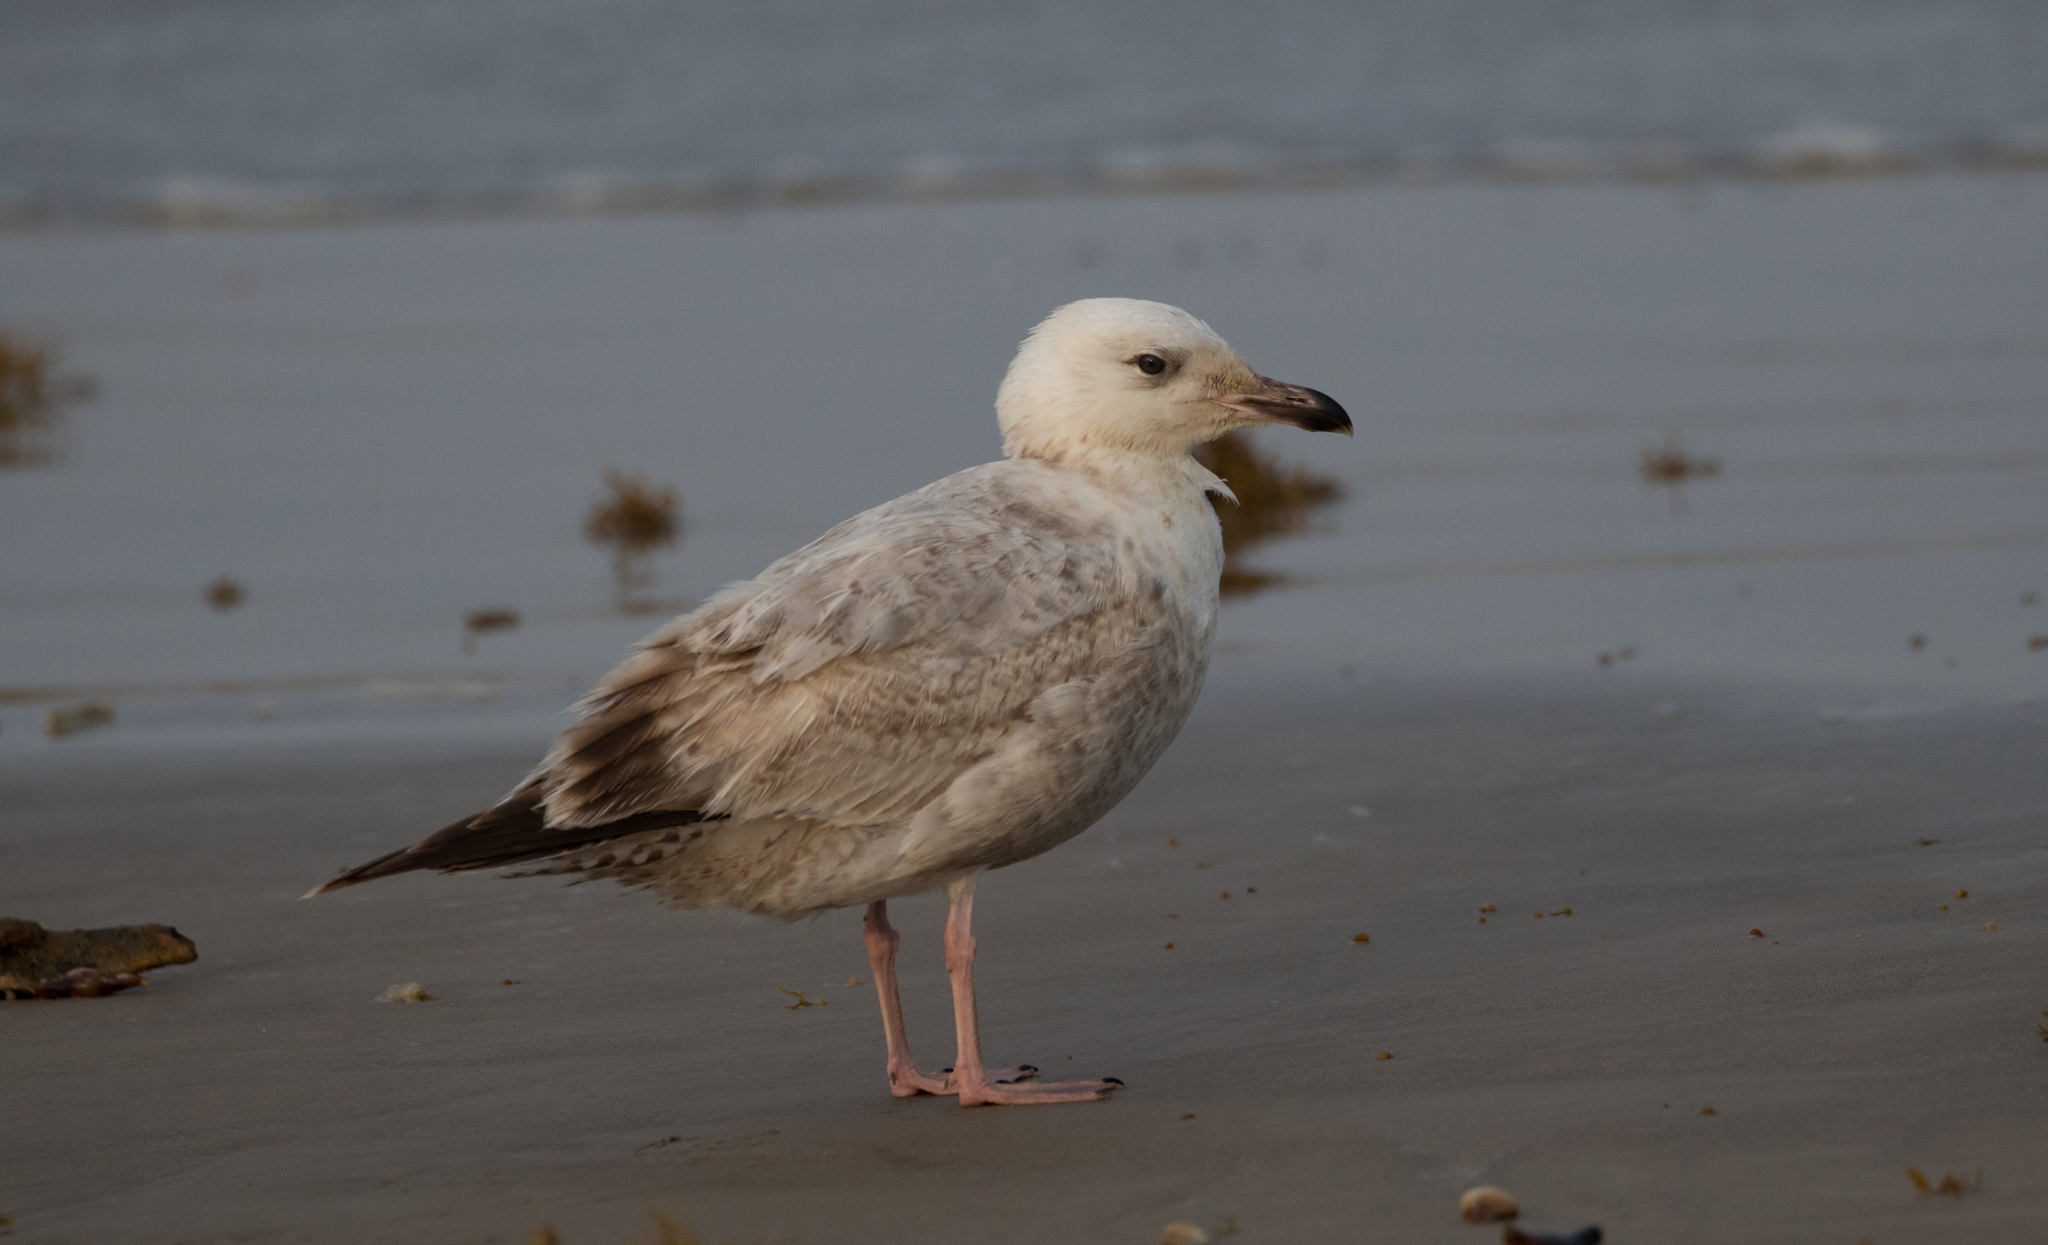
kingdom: Animalia
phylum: Chordata
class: Aves
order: Charadriiformes
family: Laridae
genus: Larus
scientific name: Larus argentatus
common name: Herring gull
